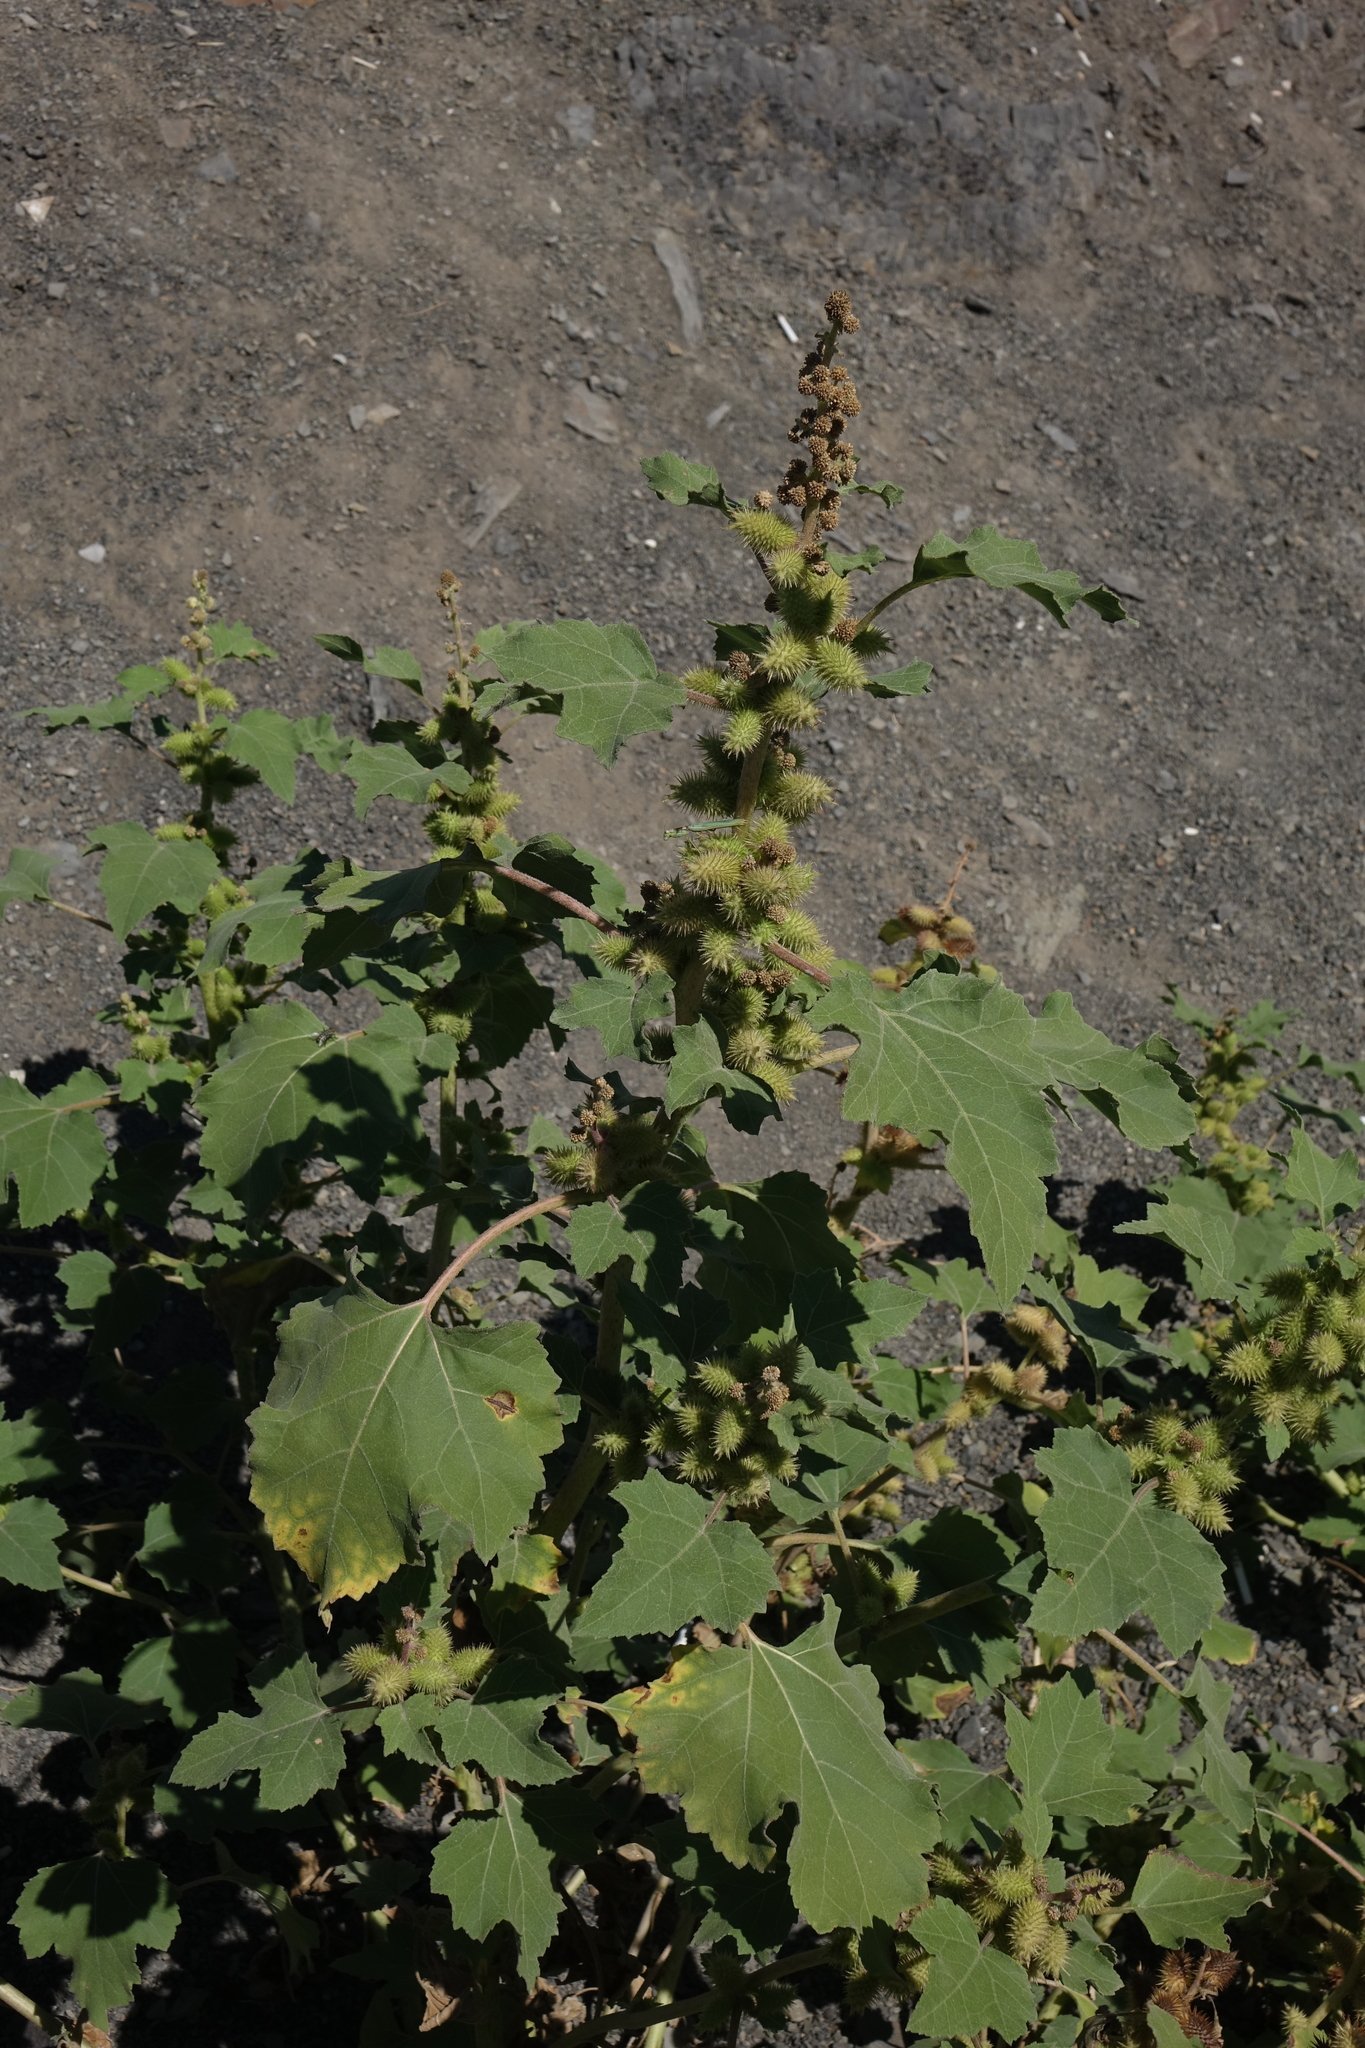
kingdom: Plantae
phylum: Tracheophyta
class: Magnoliopsida
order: Asterales
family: Asteraceae
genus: Xanthium
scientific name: Xanthium orientale
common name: Californian burr
